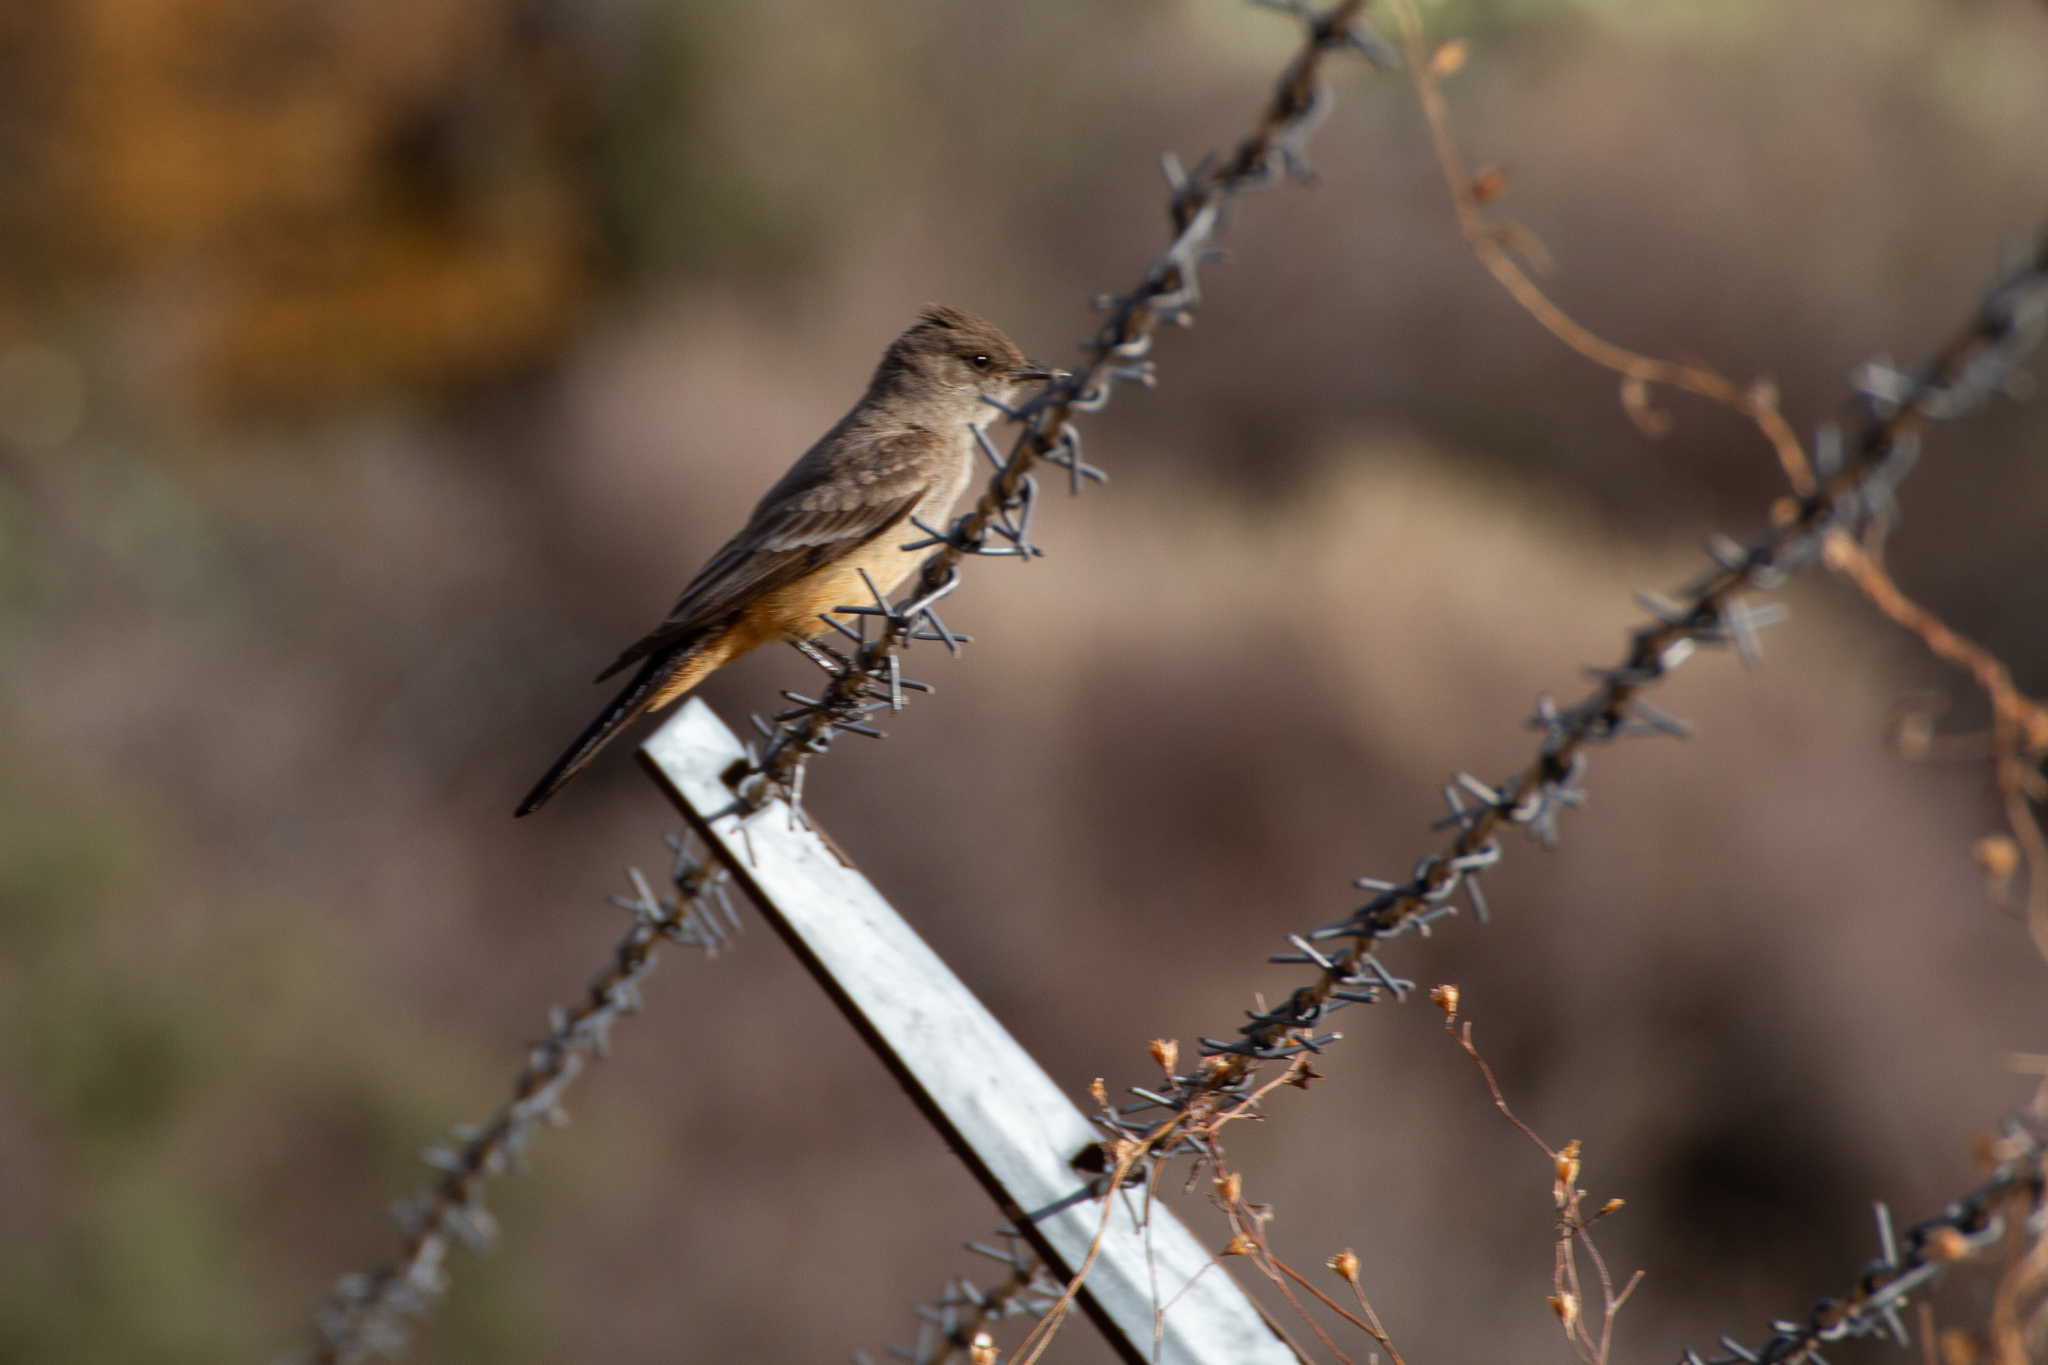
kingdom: Animalia
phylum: Chordata
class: Aves
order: Passeriformes
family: Tyrannidae
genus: Sayornis
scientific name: Sayornis saya
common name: Say's phoebe
